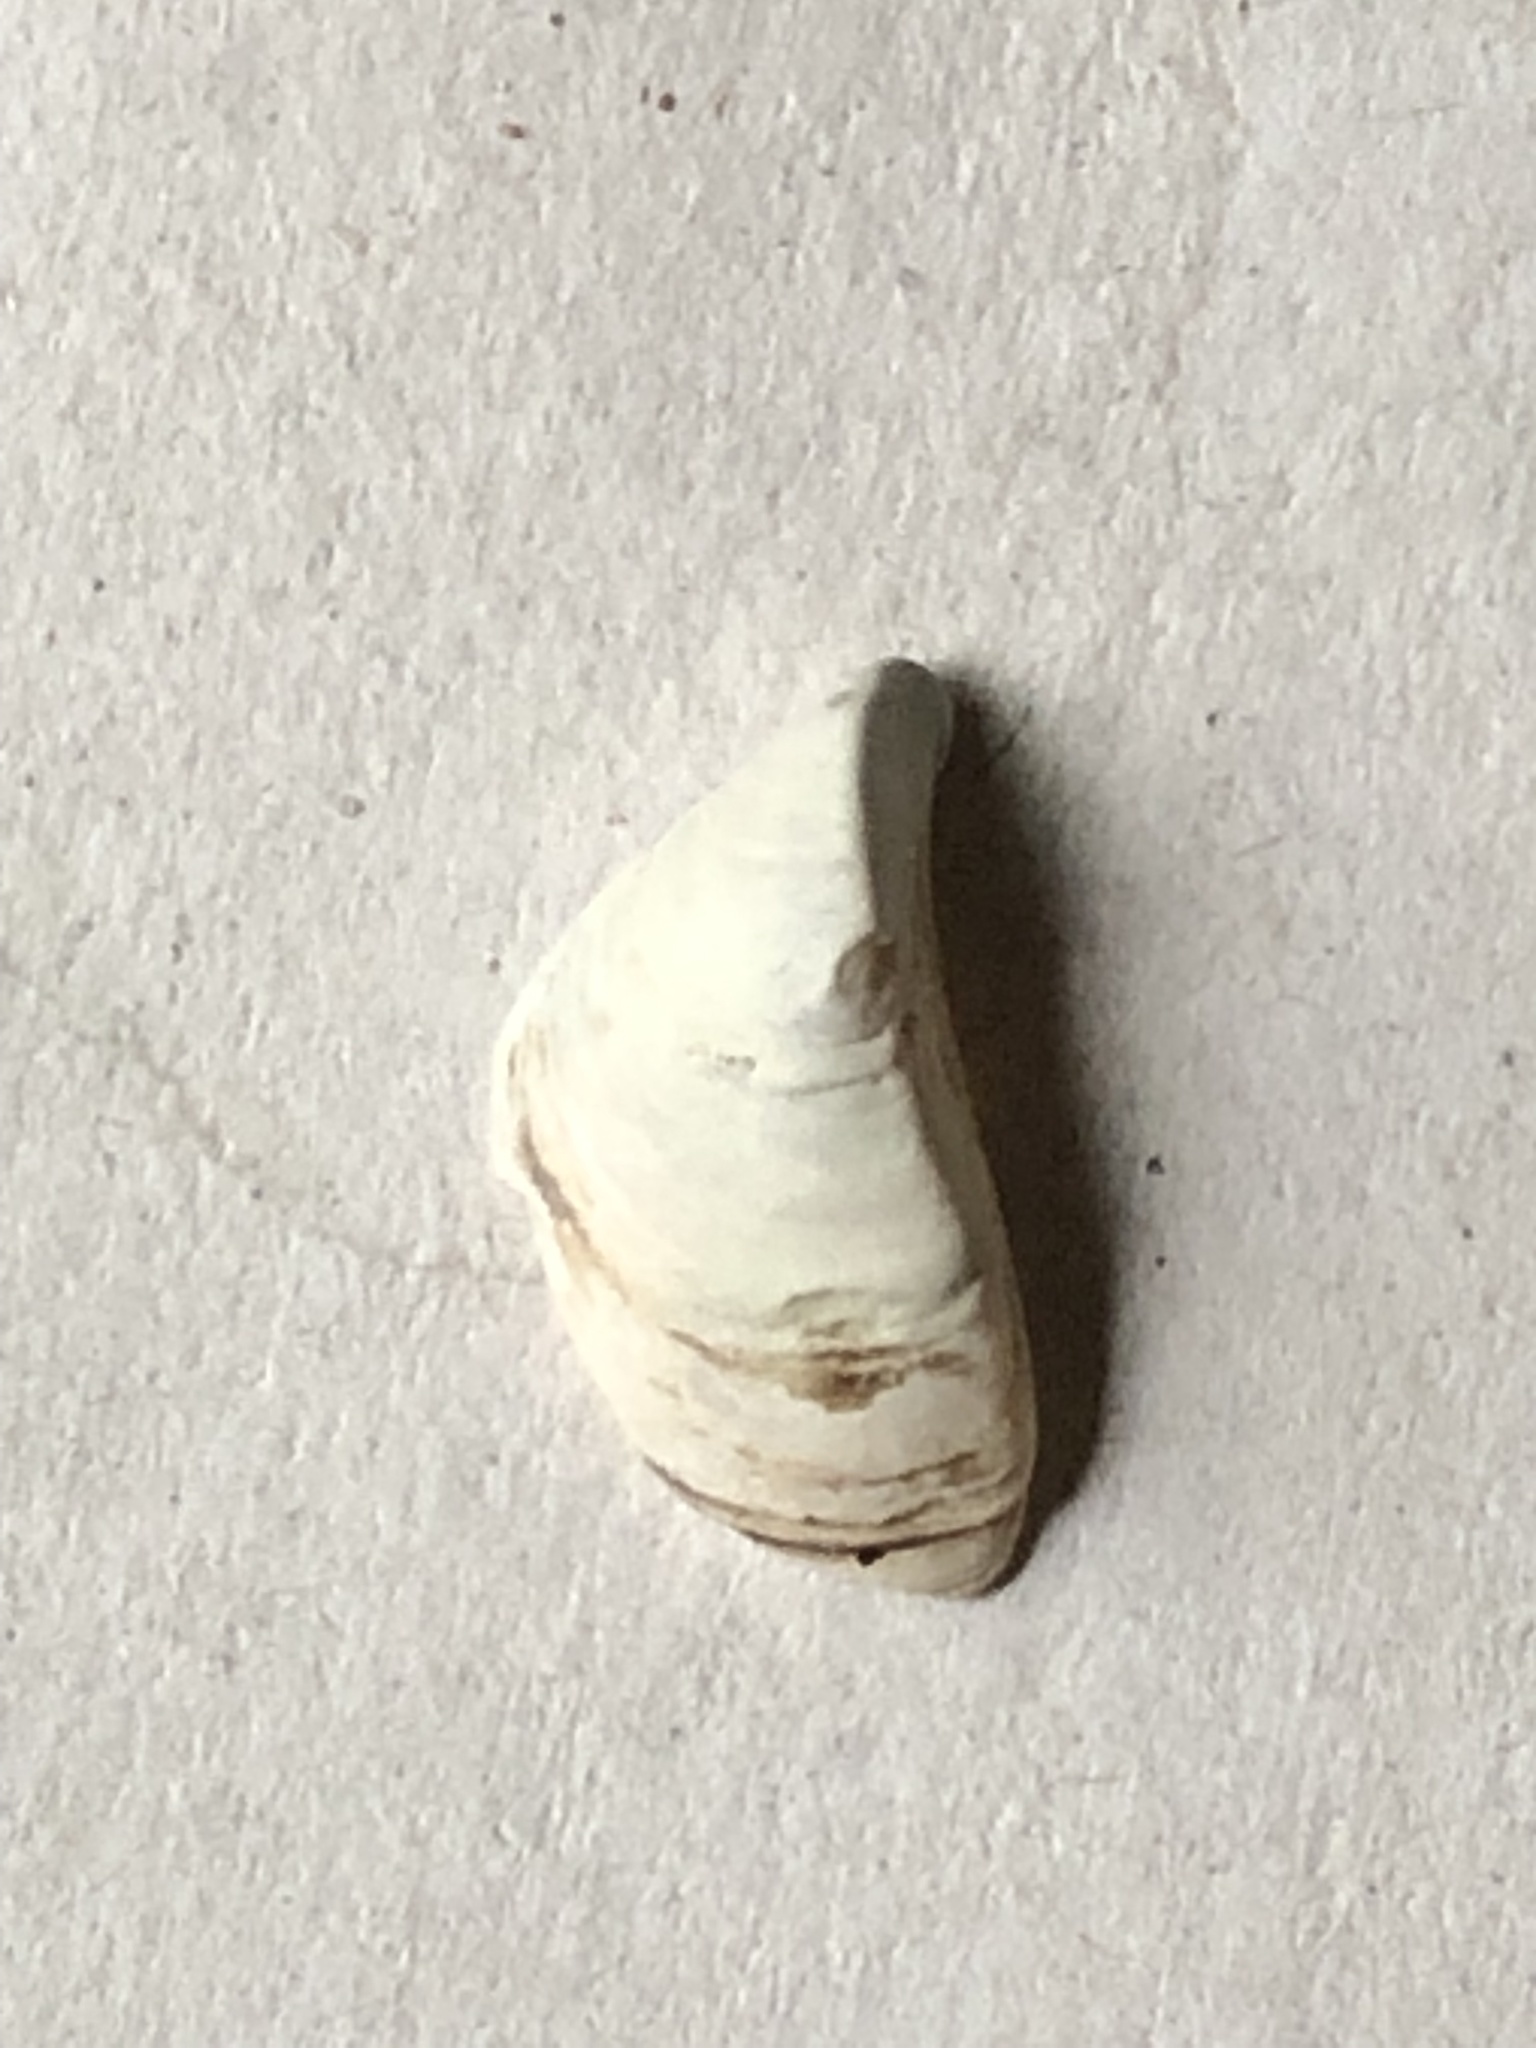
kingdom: Animalia
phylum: Mollusca
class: Bivalvia
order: Myida
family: Dreissenidae
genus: Dreissena
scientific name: Dreissena polymorpha
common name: Zebra mussel
